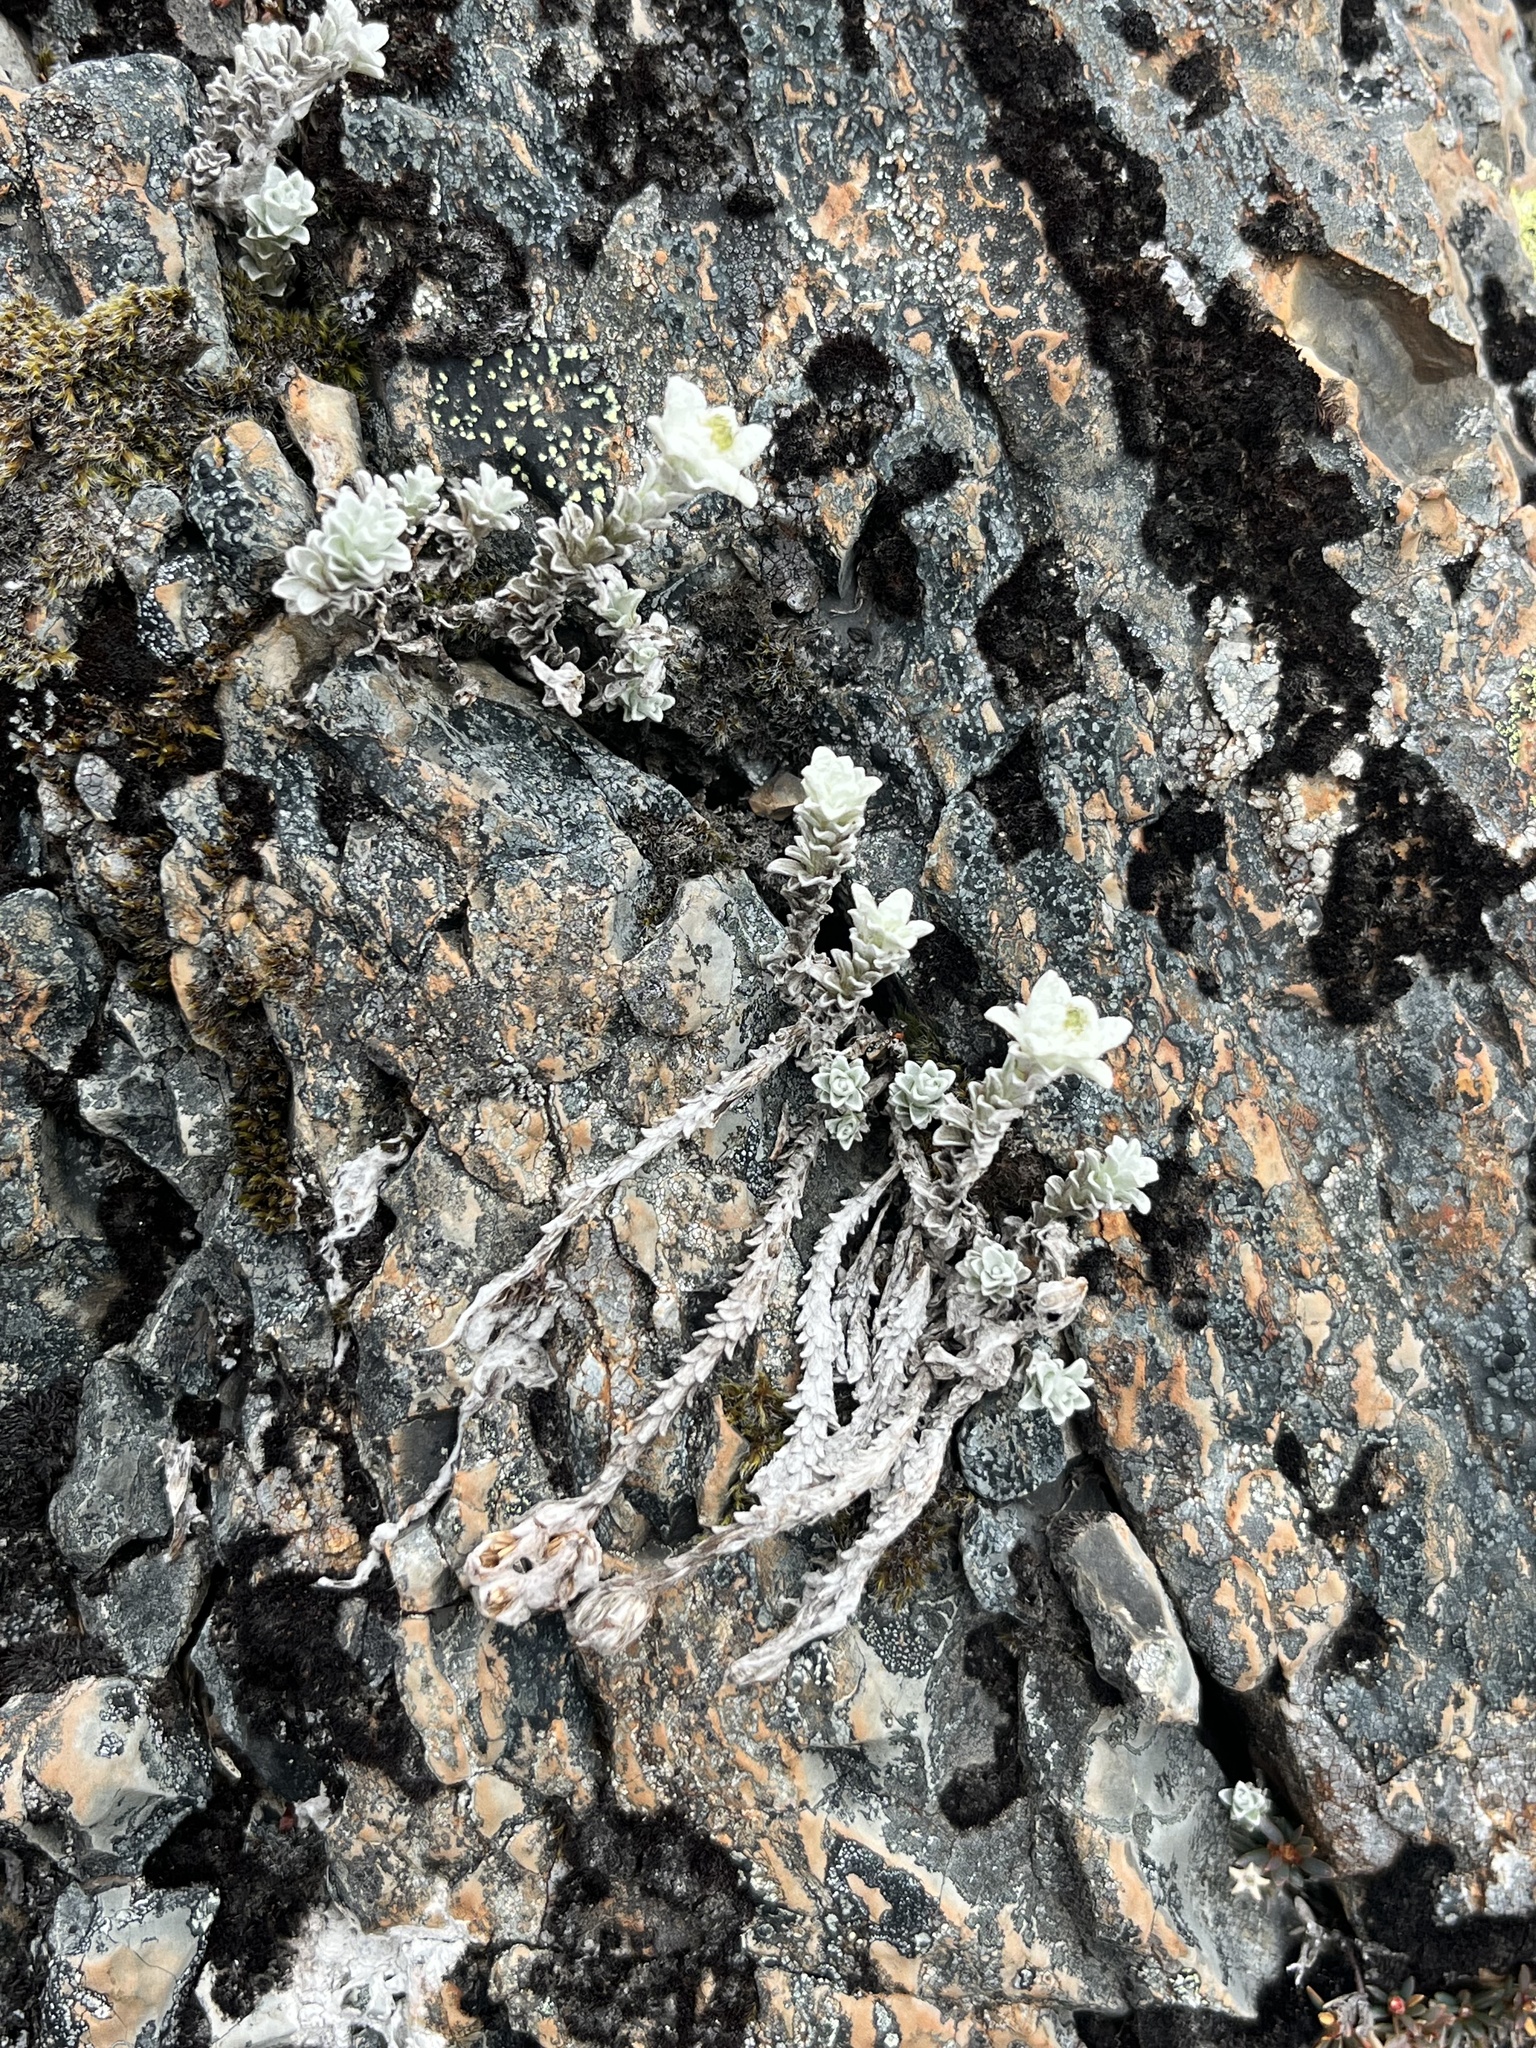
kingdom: Plantae
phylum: Tracheophyta
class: Magnoliopsida
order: Asterales
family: Asteraceae
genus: Leucogenes
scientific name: Leucogenes grandiceps
